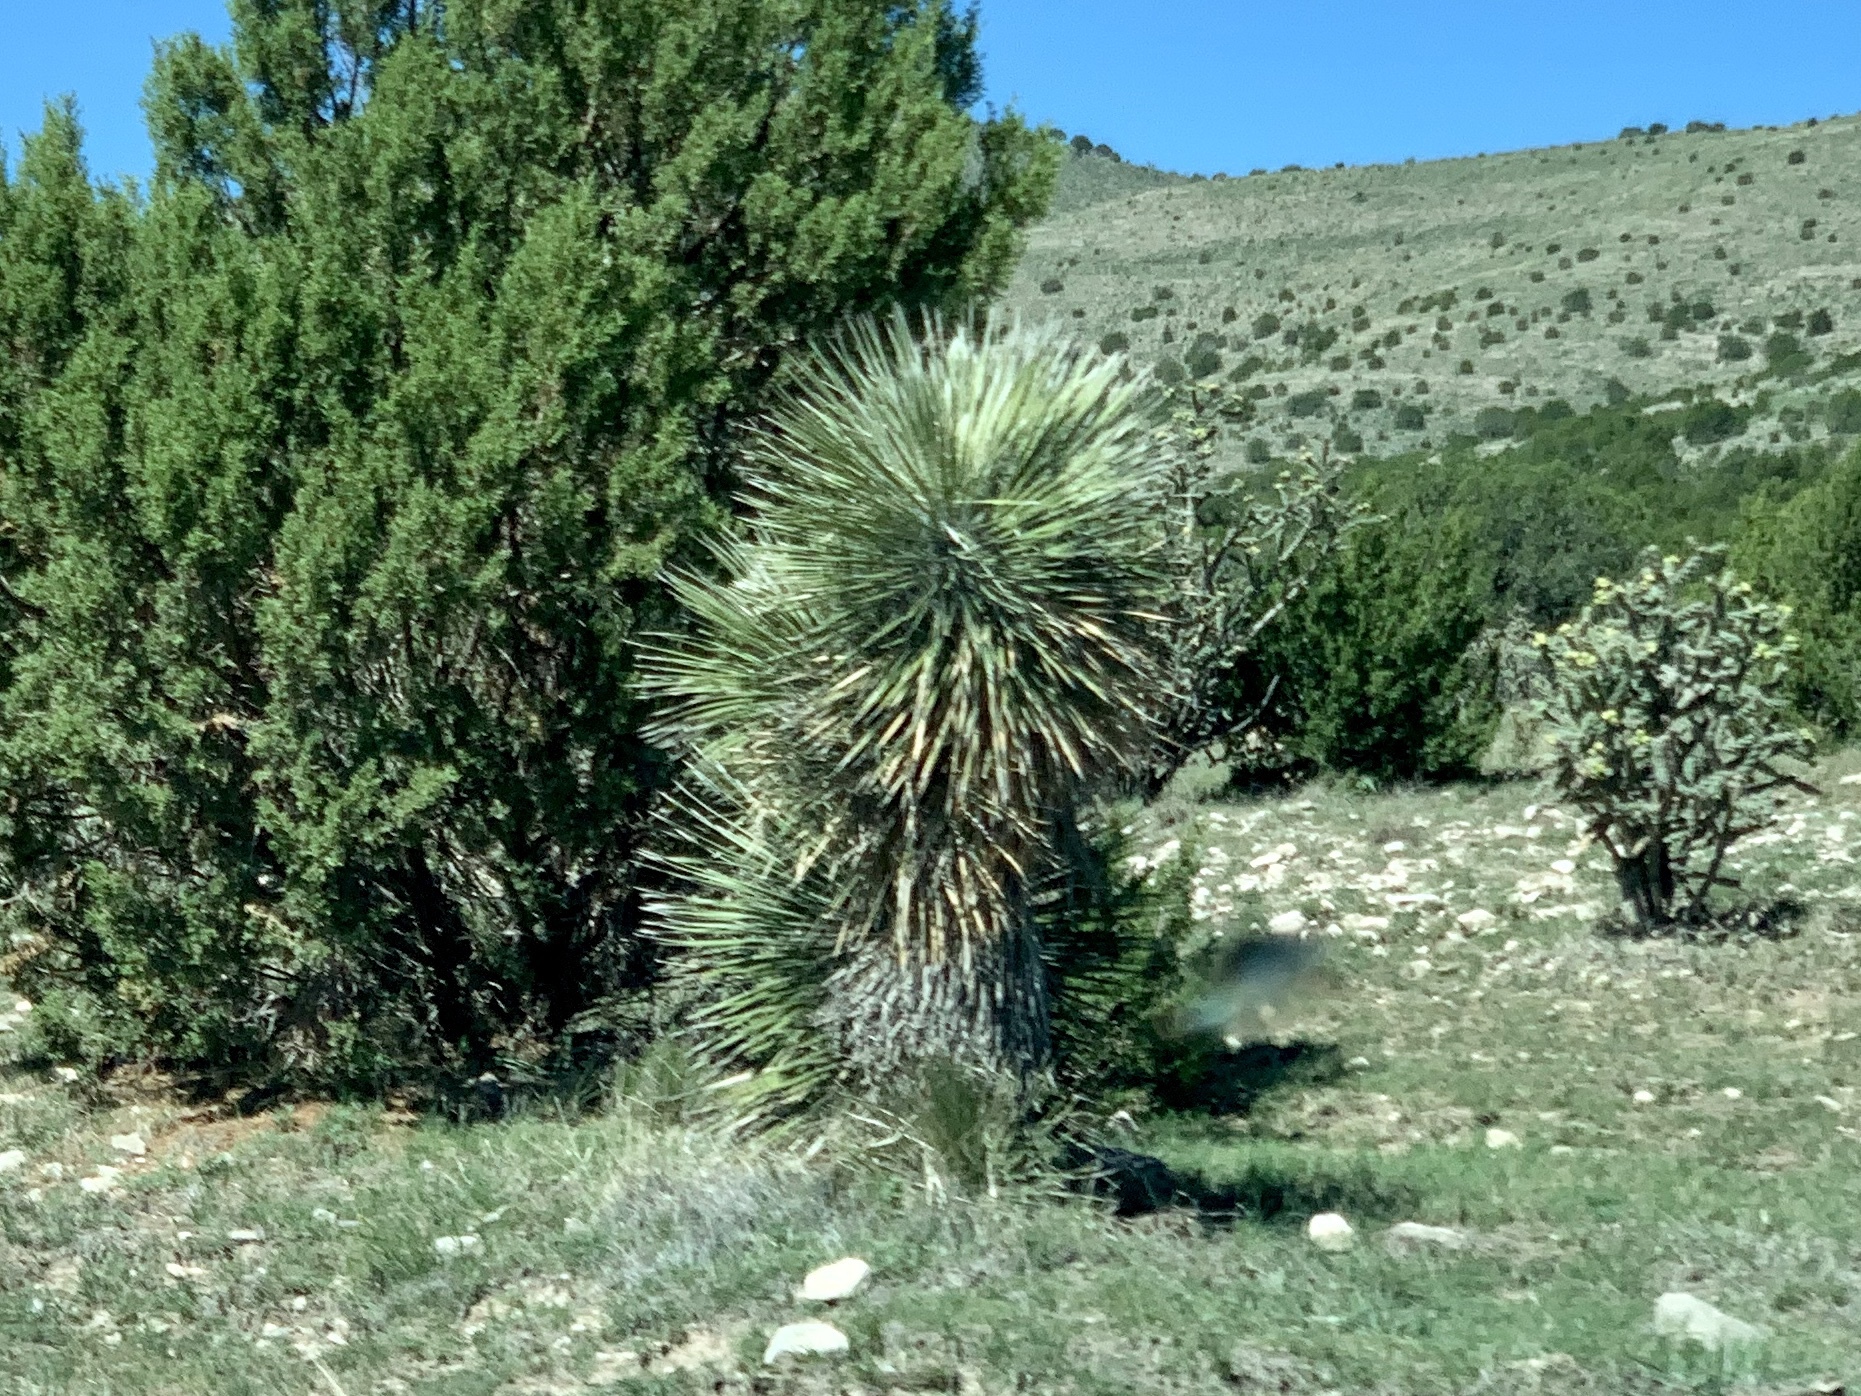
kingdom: Plantae
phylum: Tracheophyta
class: Liliopsida
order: Asparagales
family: Asparagaceae
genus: Yucca
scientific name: Yucca elata
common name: Palmella
